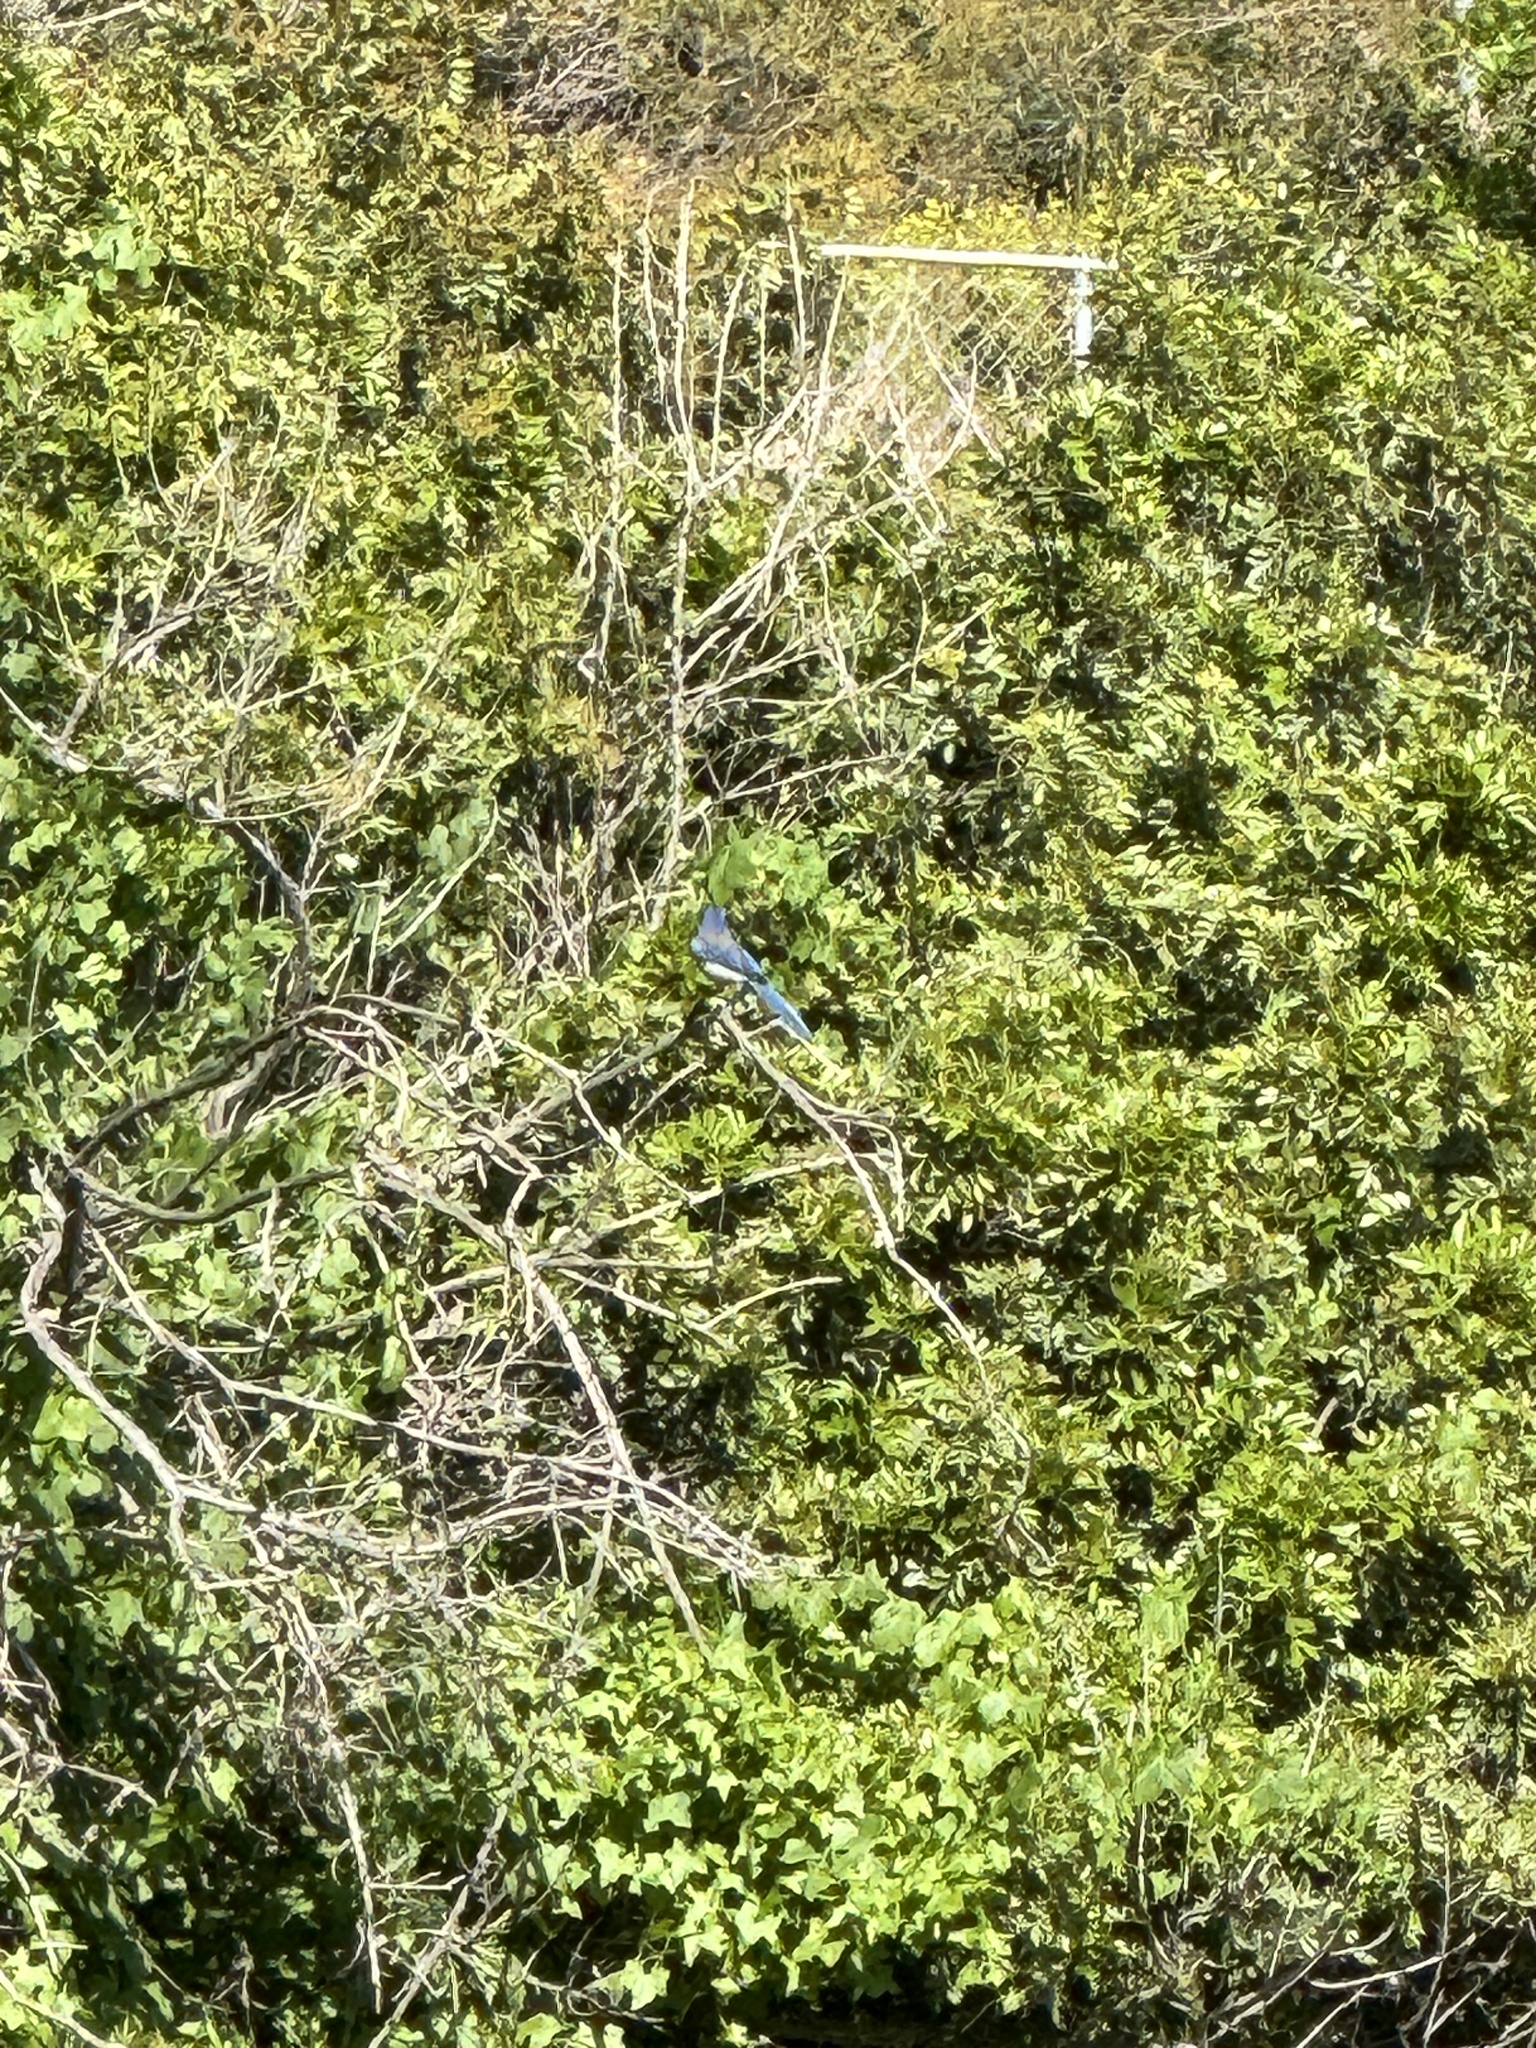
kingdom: Animalia
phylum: Chordata
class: Aves
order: Passeriformes
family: Corvidae
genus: Aphelocoma
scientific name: Aphelocoma californica
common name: California scrub-jay
